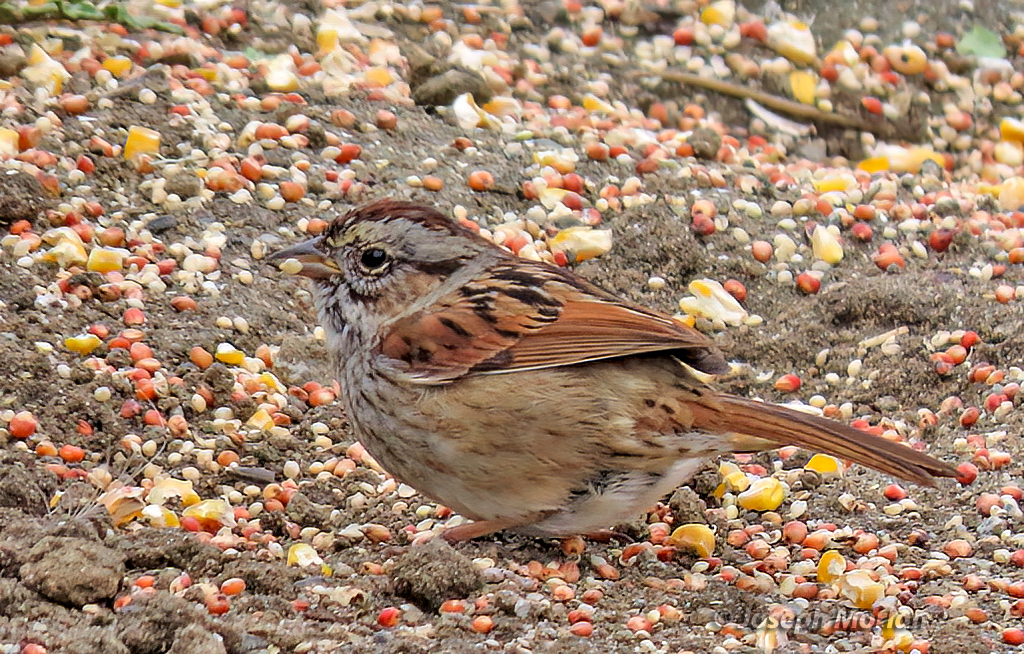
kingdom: Animalia
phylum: Chordata
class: Aves
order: Passeriformes
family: Passerellidae
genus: Melospiza
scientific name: Melospiza georgiana
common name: Swamp sparrow
